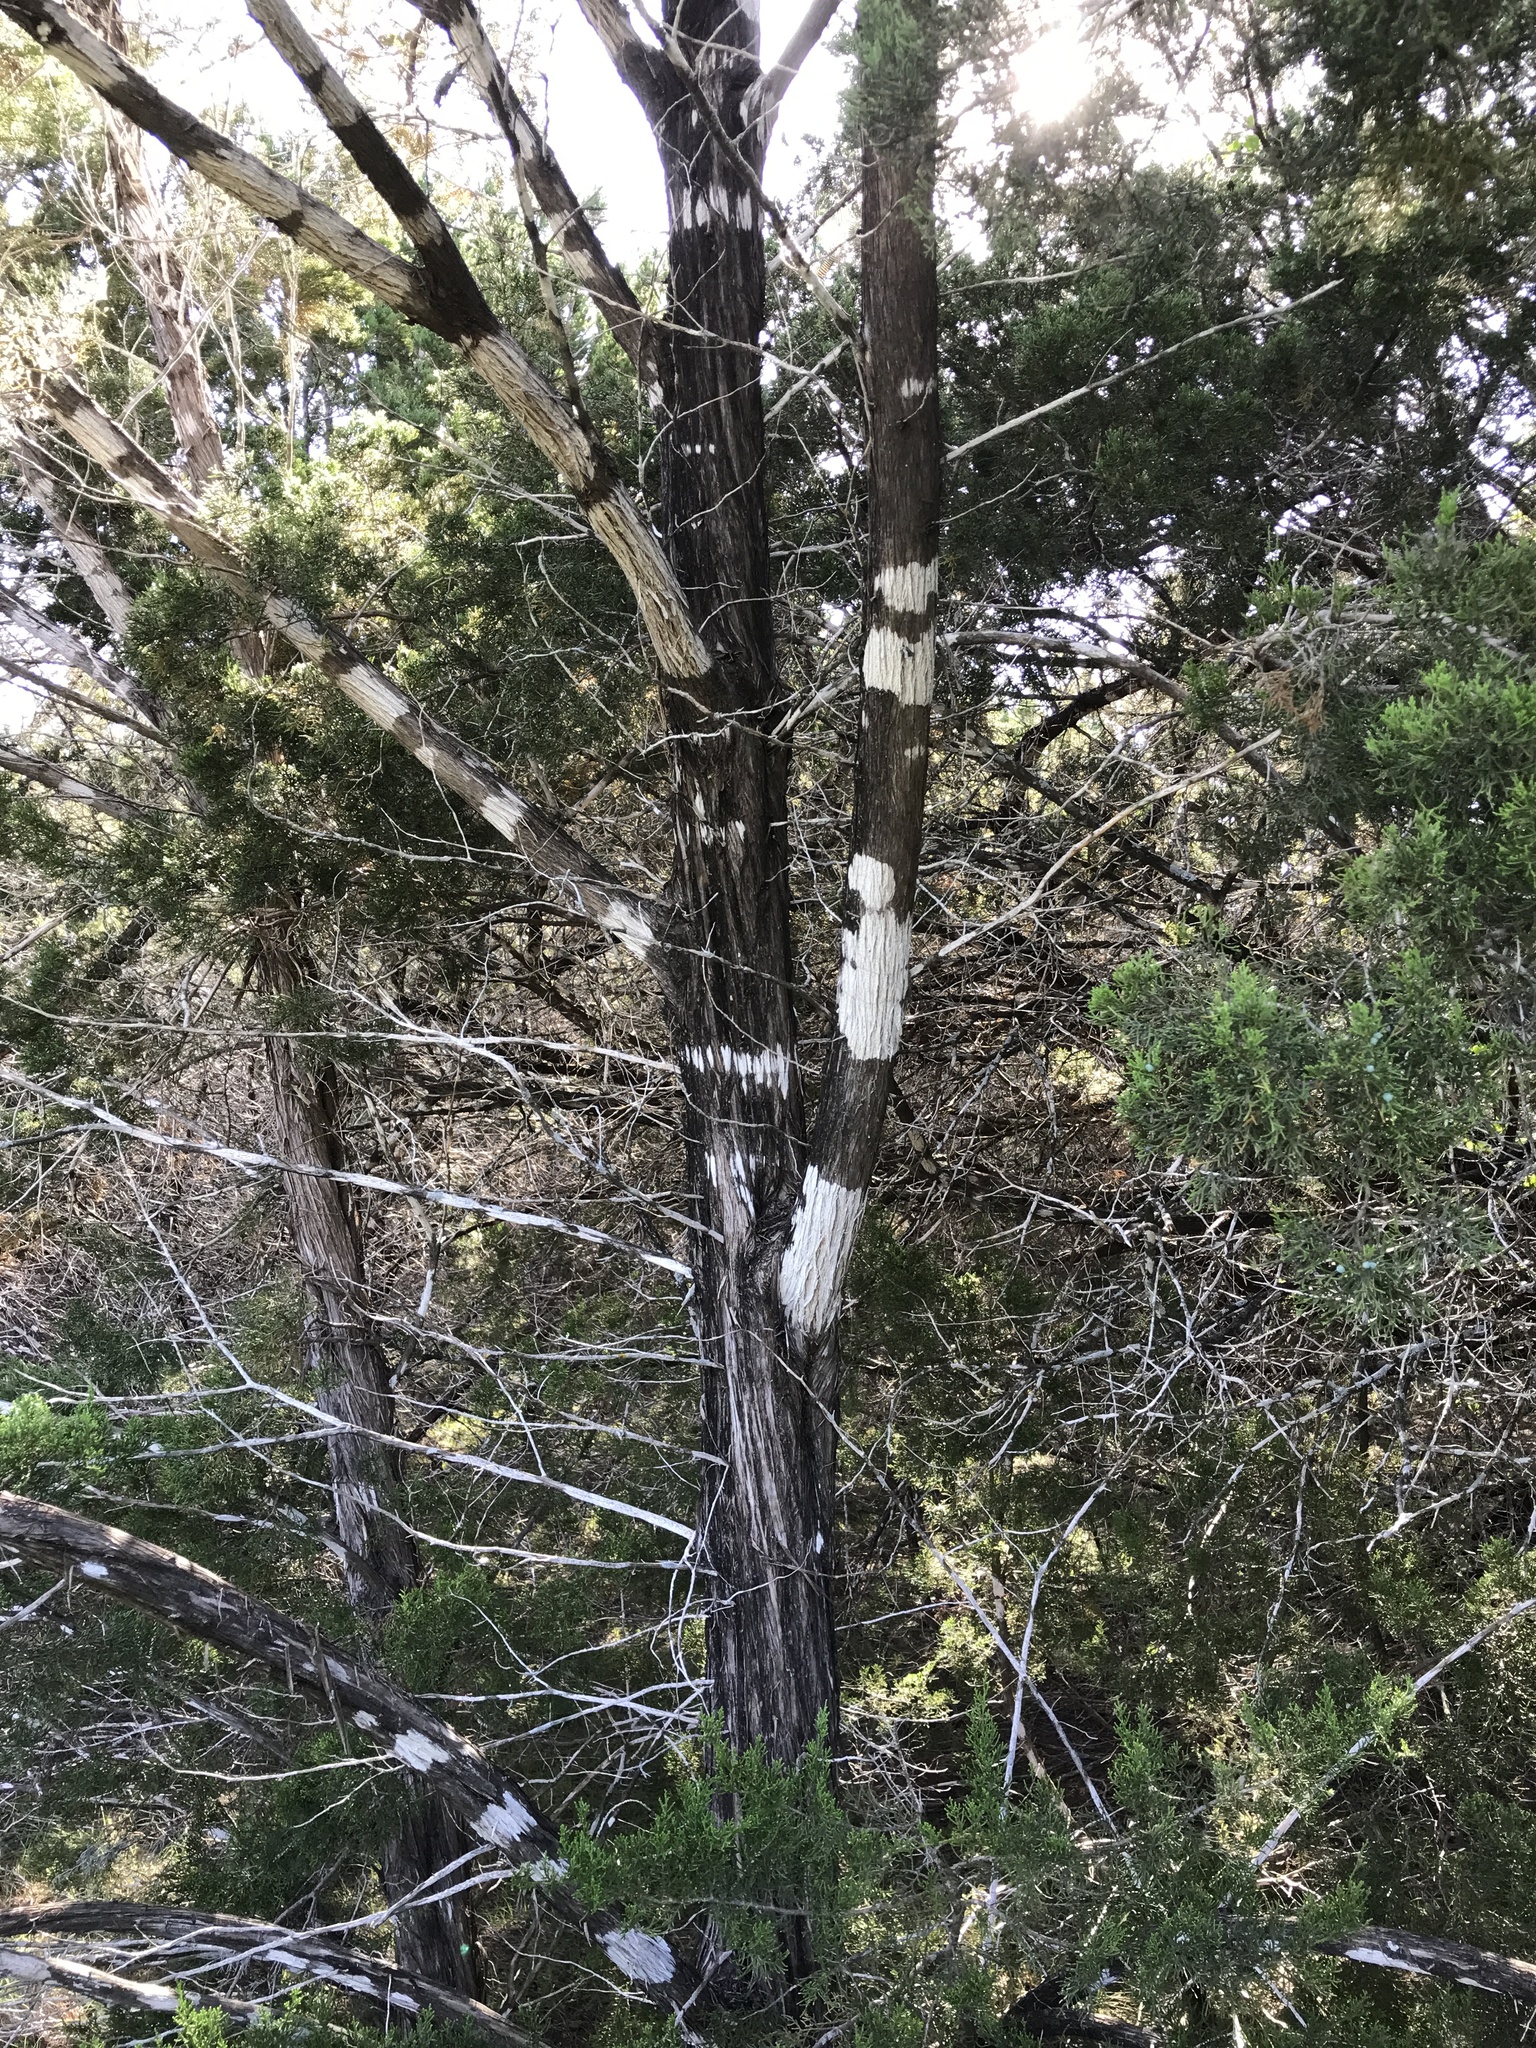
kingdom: Fungi
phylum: Ascomycota
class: Lecanoromycetes
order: Ostropales
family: Stictidaceae
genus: Robergea
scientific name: Robergea
